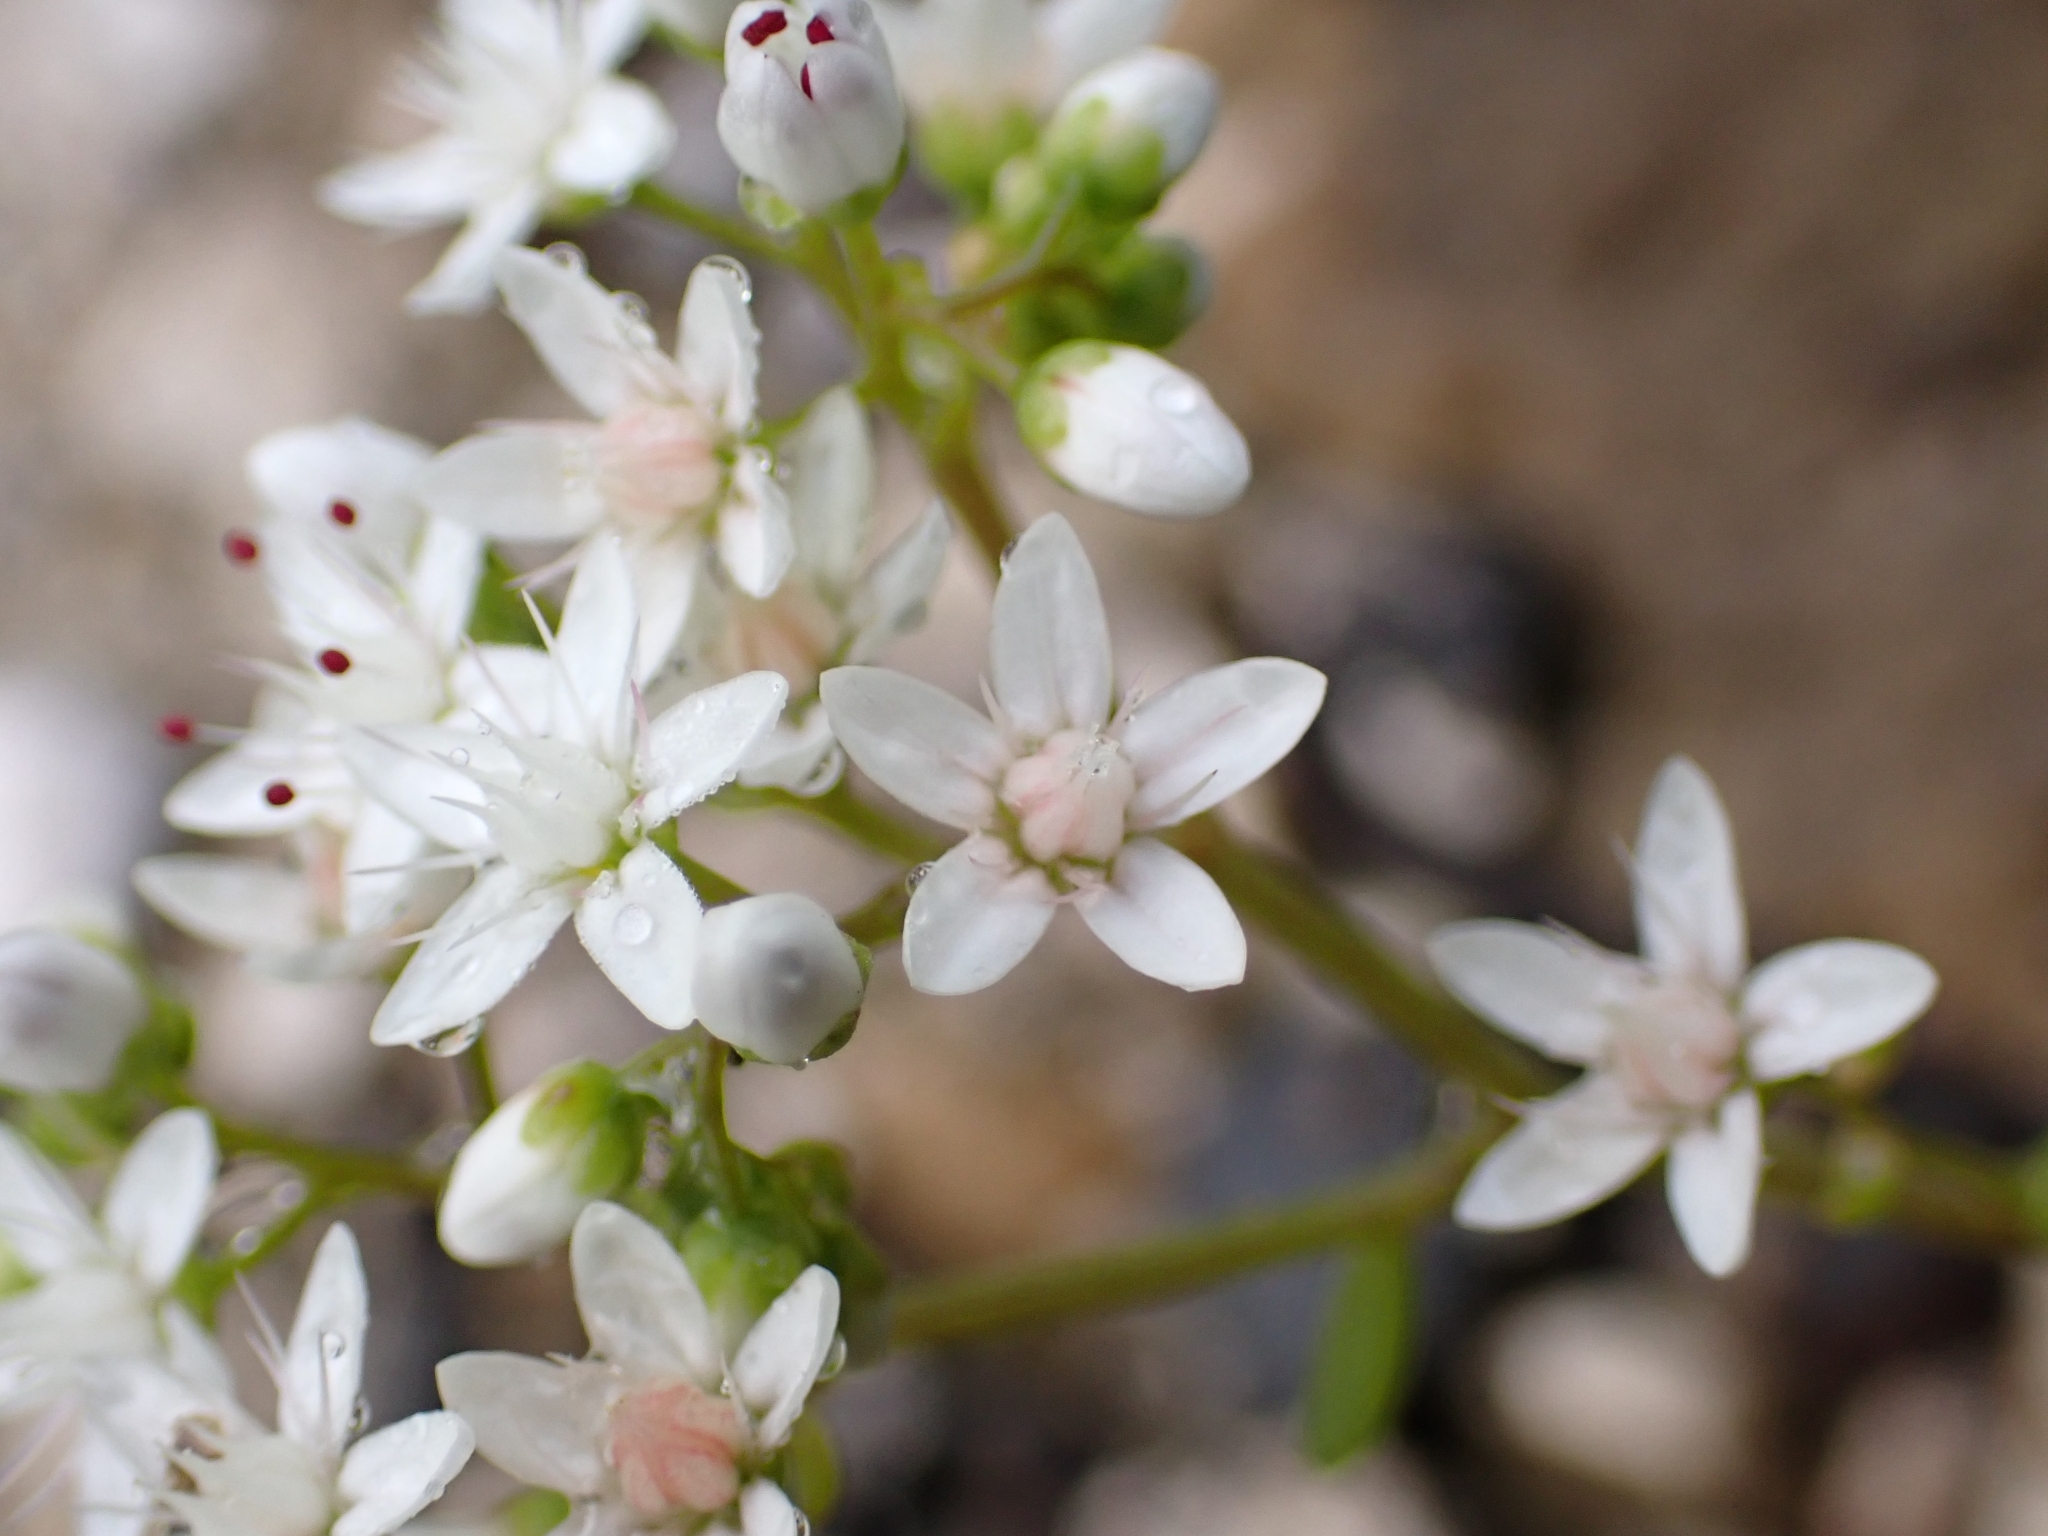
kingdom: Plantae
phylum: Tracheophyta
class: Magnoliopsida
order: Saxifragales
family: Crassulaceae
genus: Sedum
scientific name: Sedum album
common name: White stonecrop
